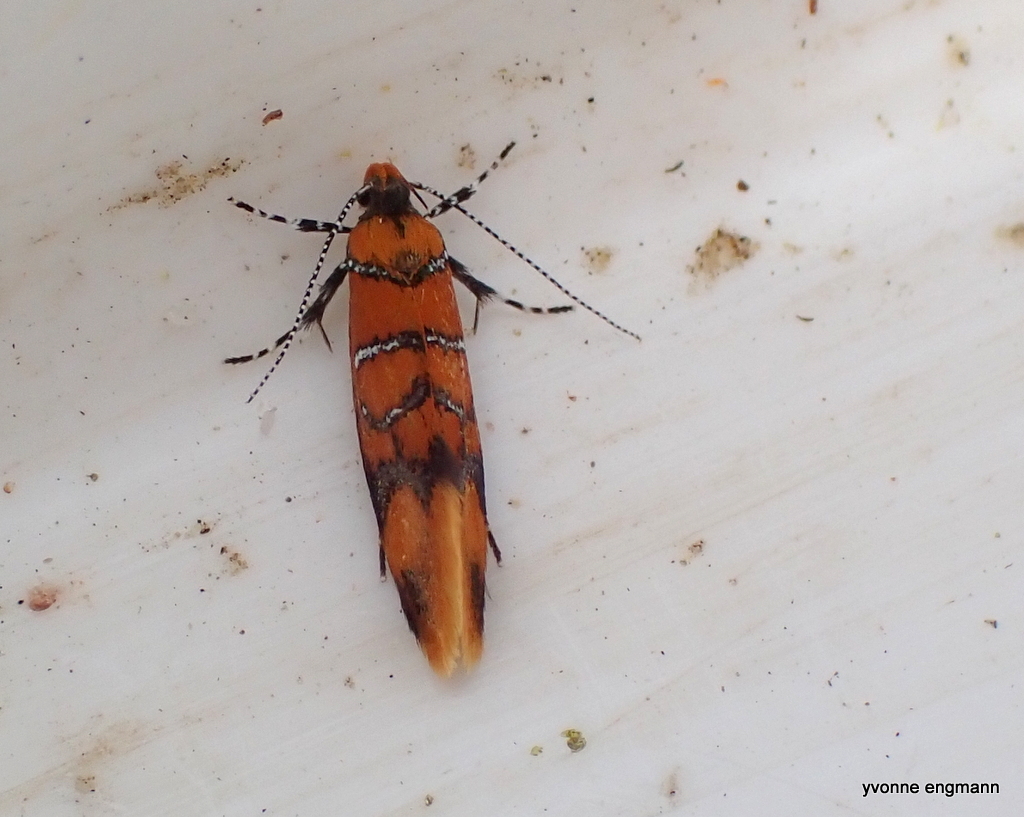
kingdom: Animalia
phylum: Arthropoda
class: Insecta
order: Lepidoptera
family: Oecophoridae
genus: Schiffermuelleria
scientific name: Schiffermuelleria procerella
